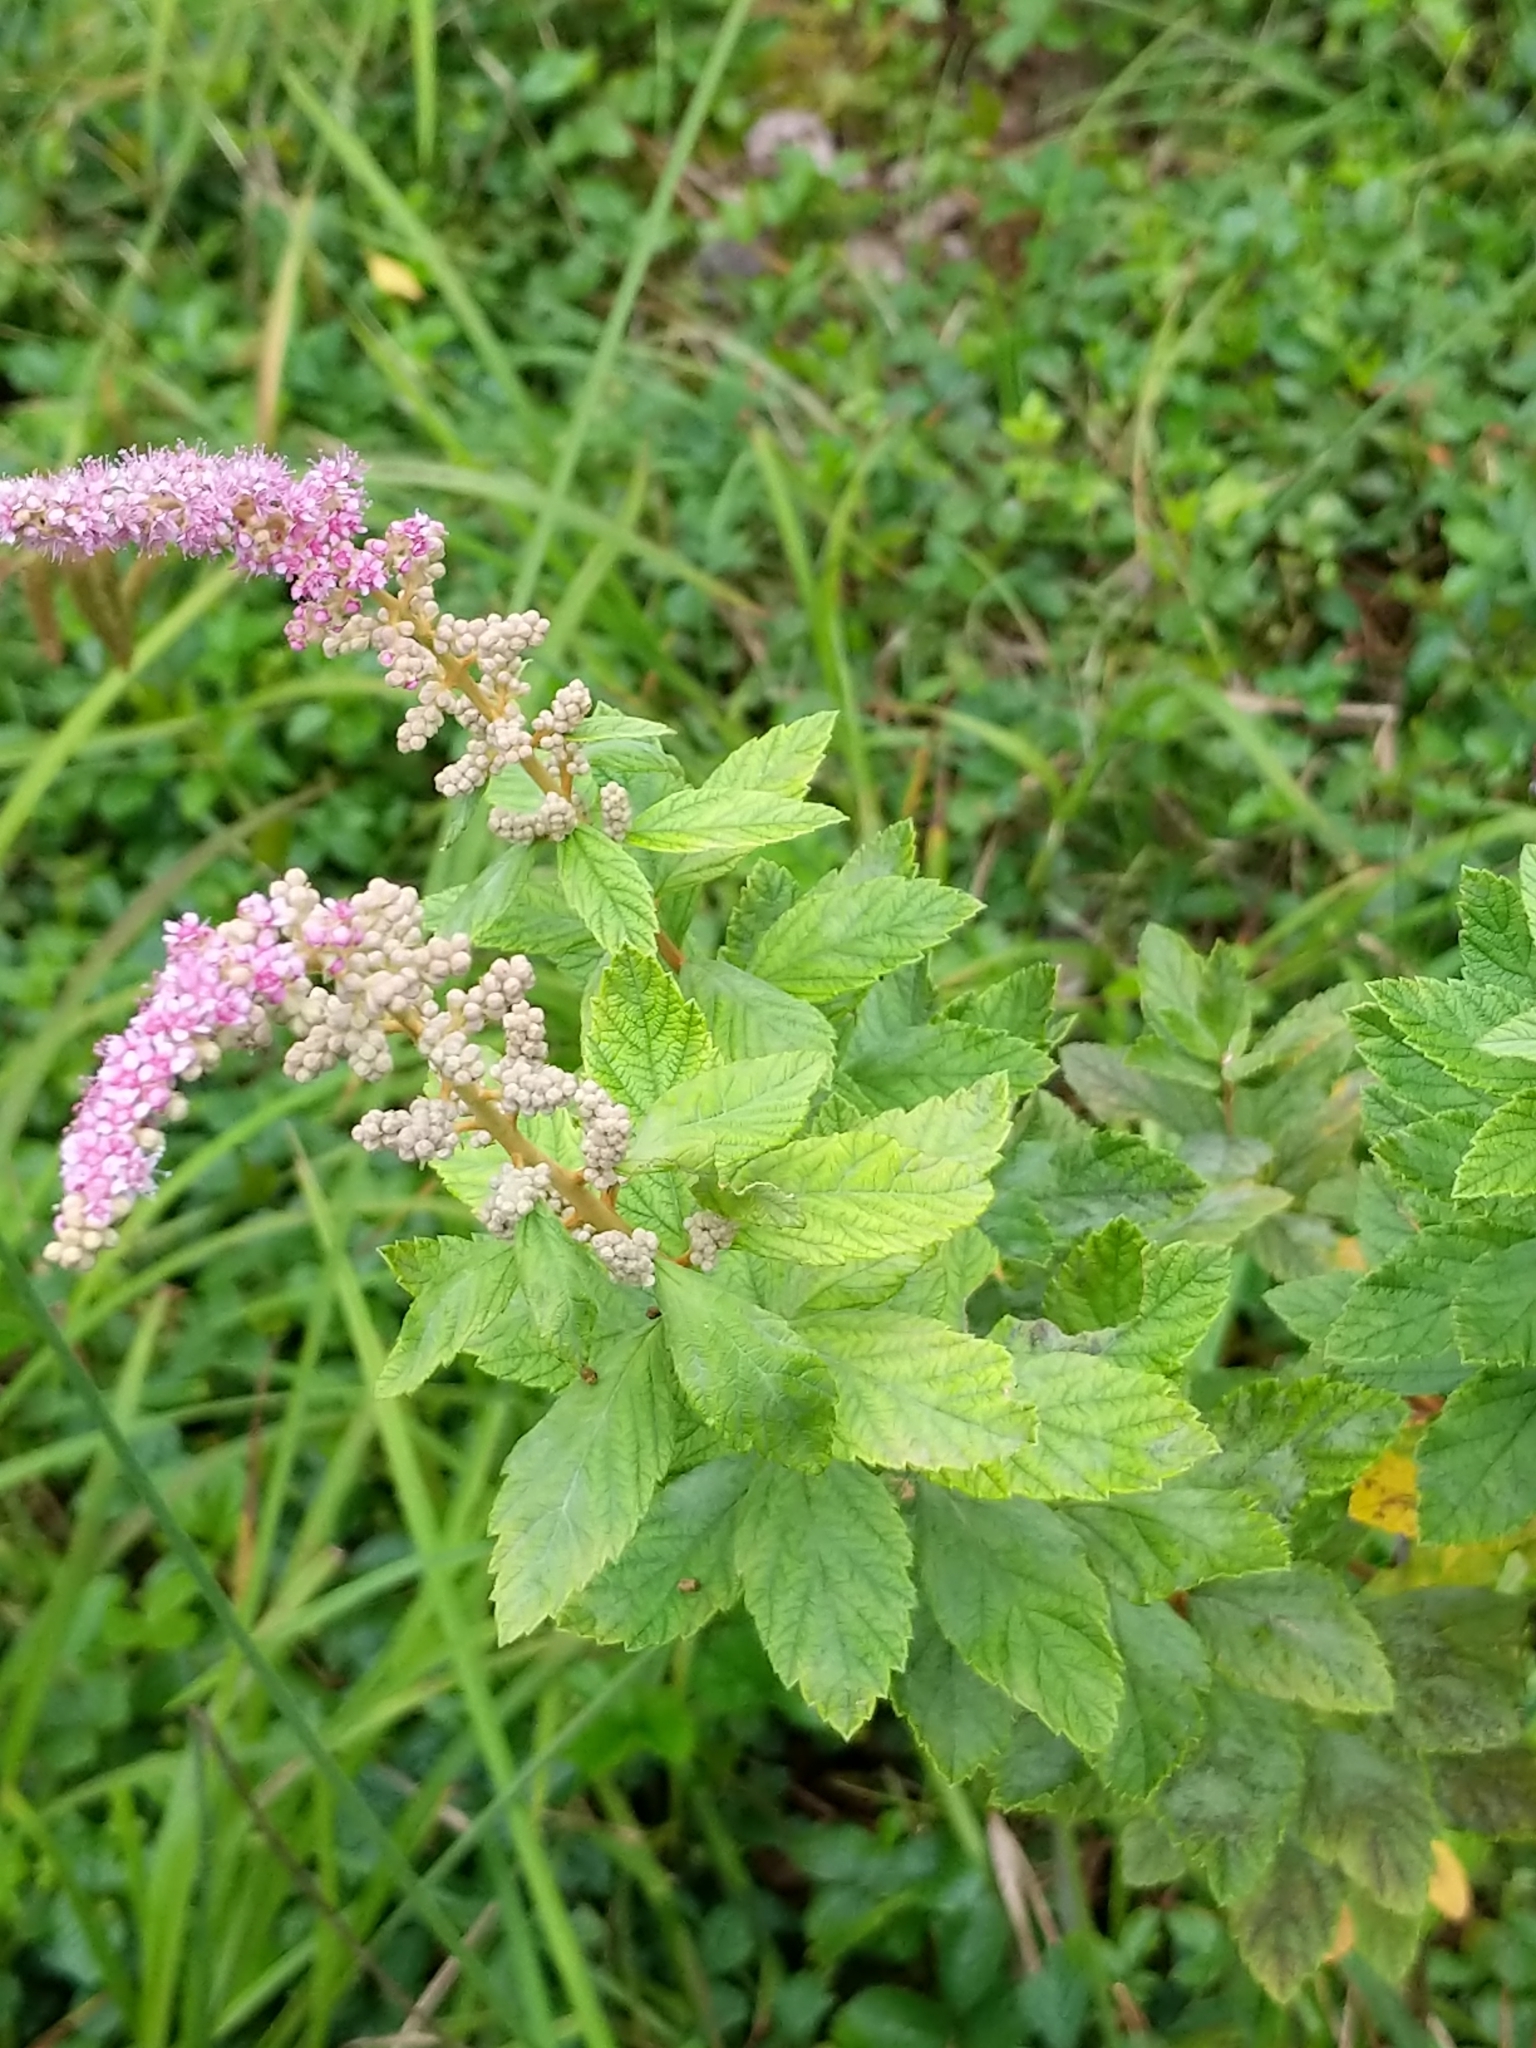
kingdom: Plantae
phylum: Tracheophyta
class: Magnoliopsida
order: Rosales
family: Rosaceae
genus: Spiraea
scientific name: Spiraea tomentosa
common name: Hardhack
